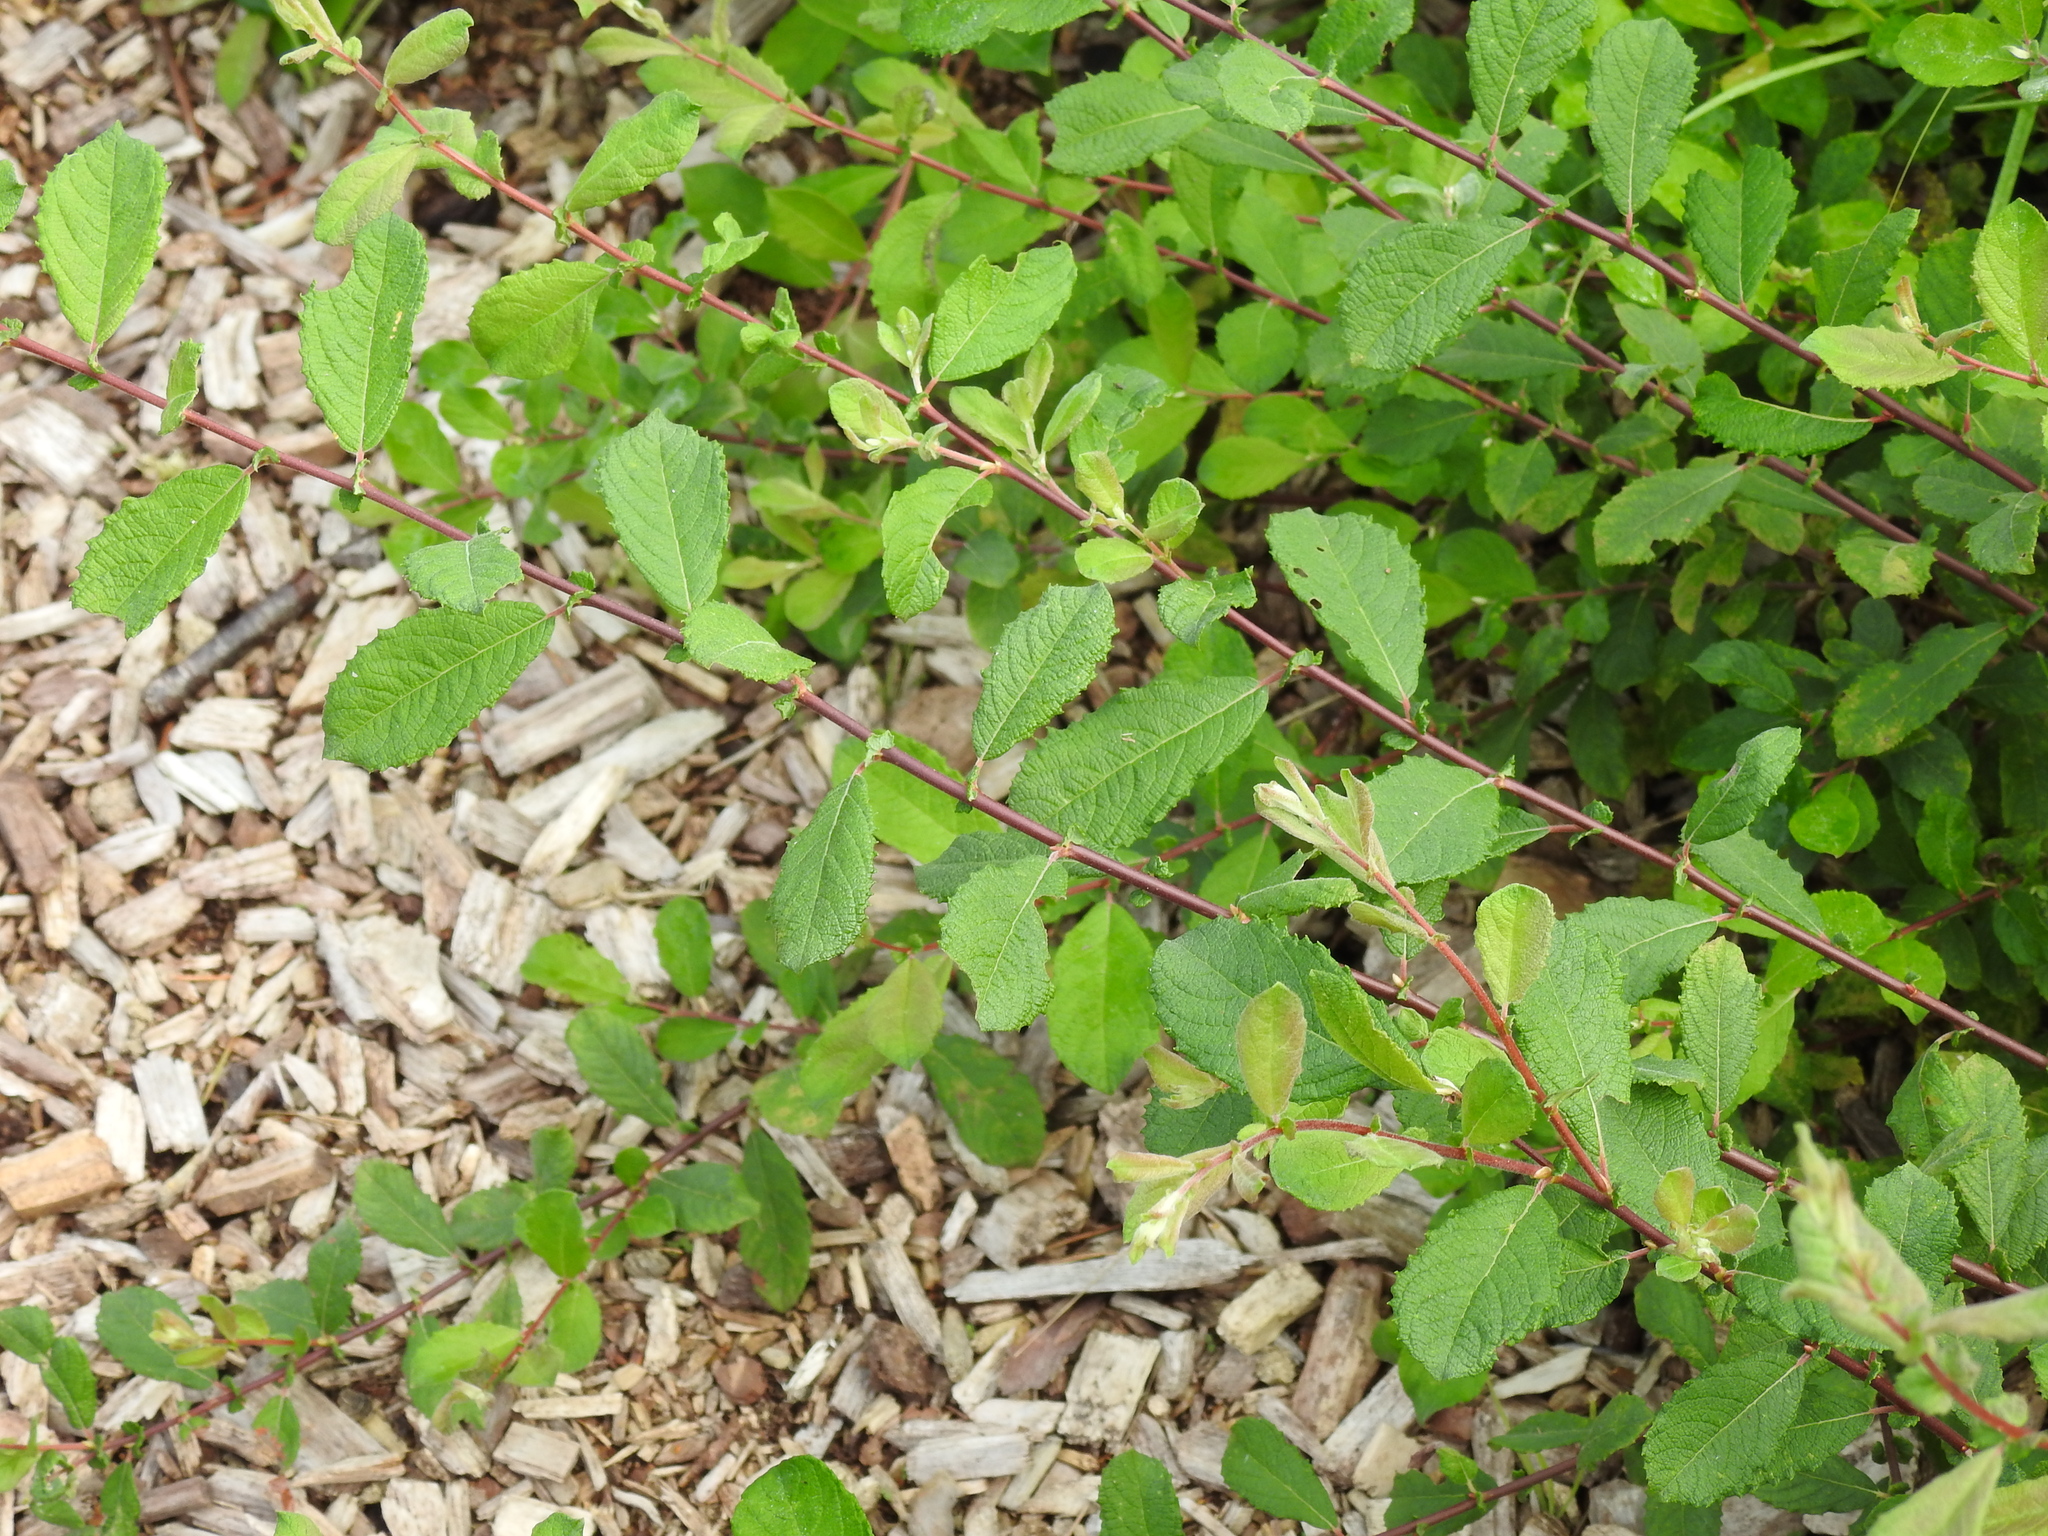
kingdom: Plantae
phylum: Tracheophyta
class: Magnoliopsida
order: Malpighiales
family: Salicaceae
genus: Salix
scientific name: Salix aurita
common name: Eared willow
